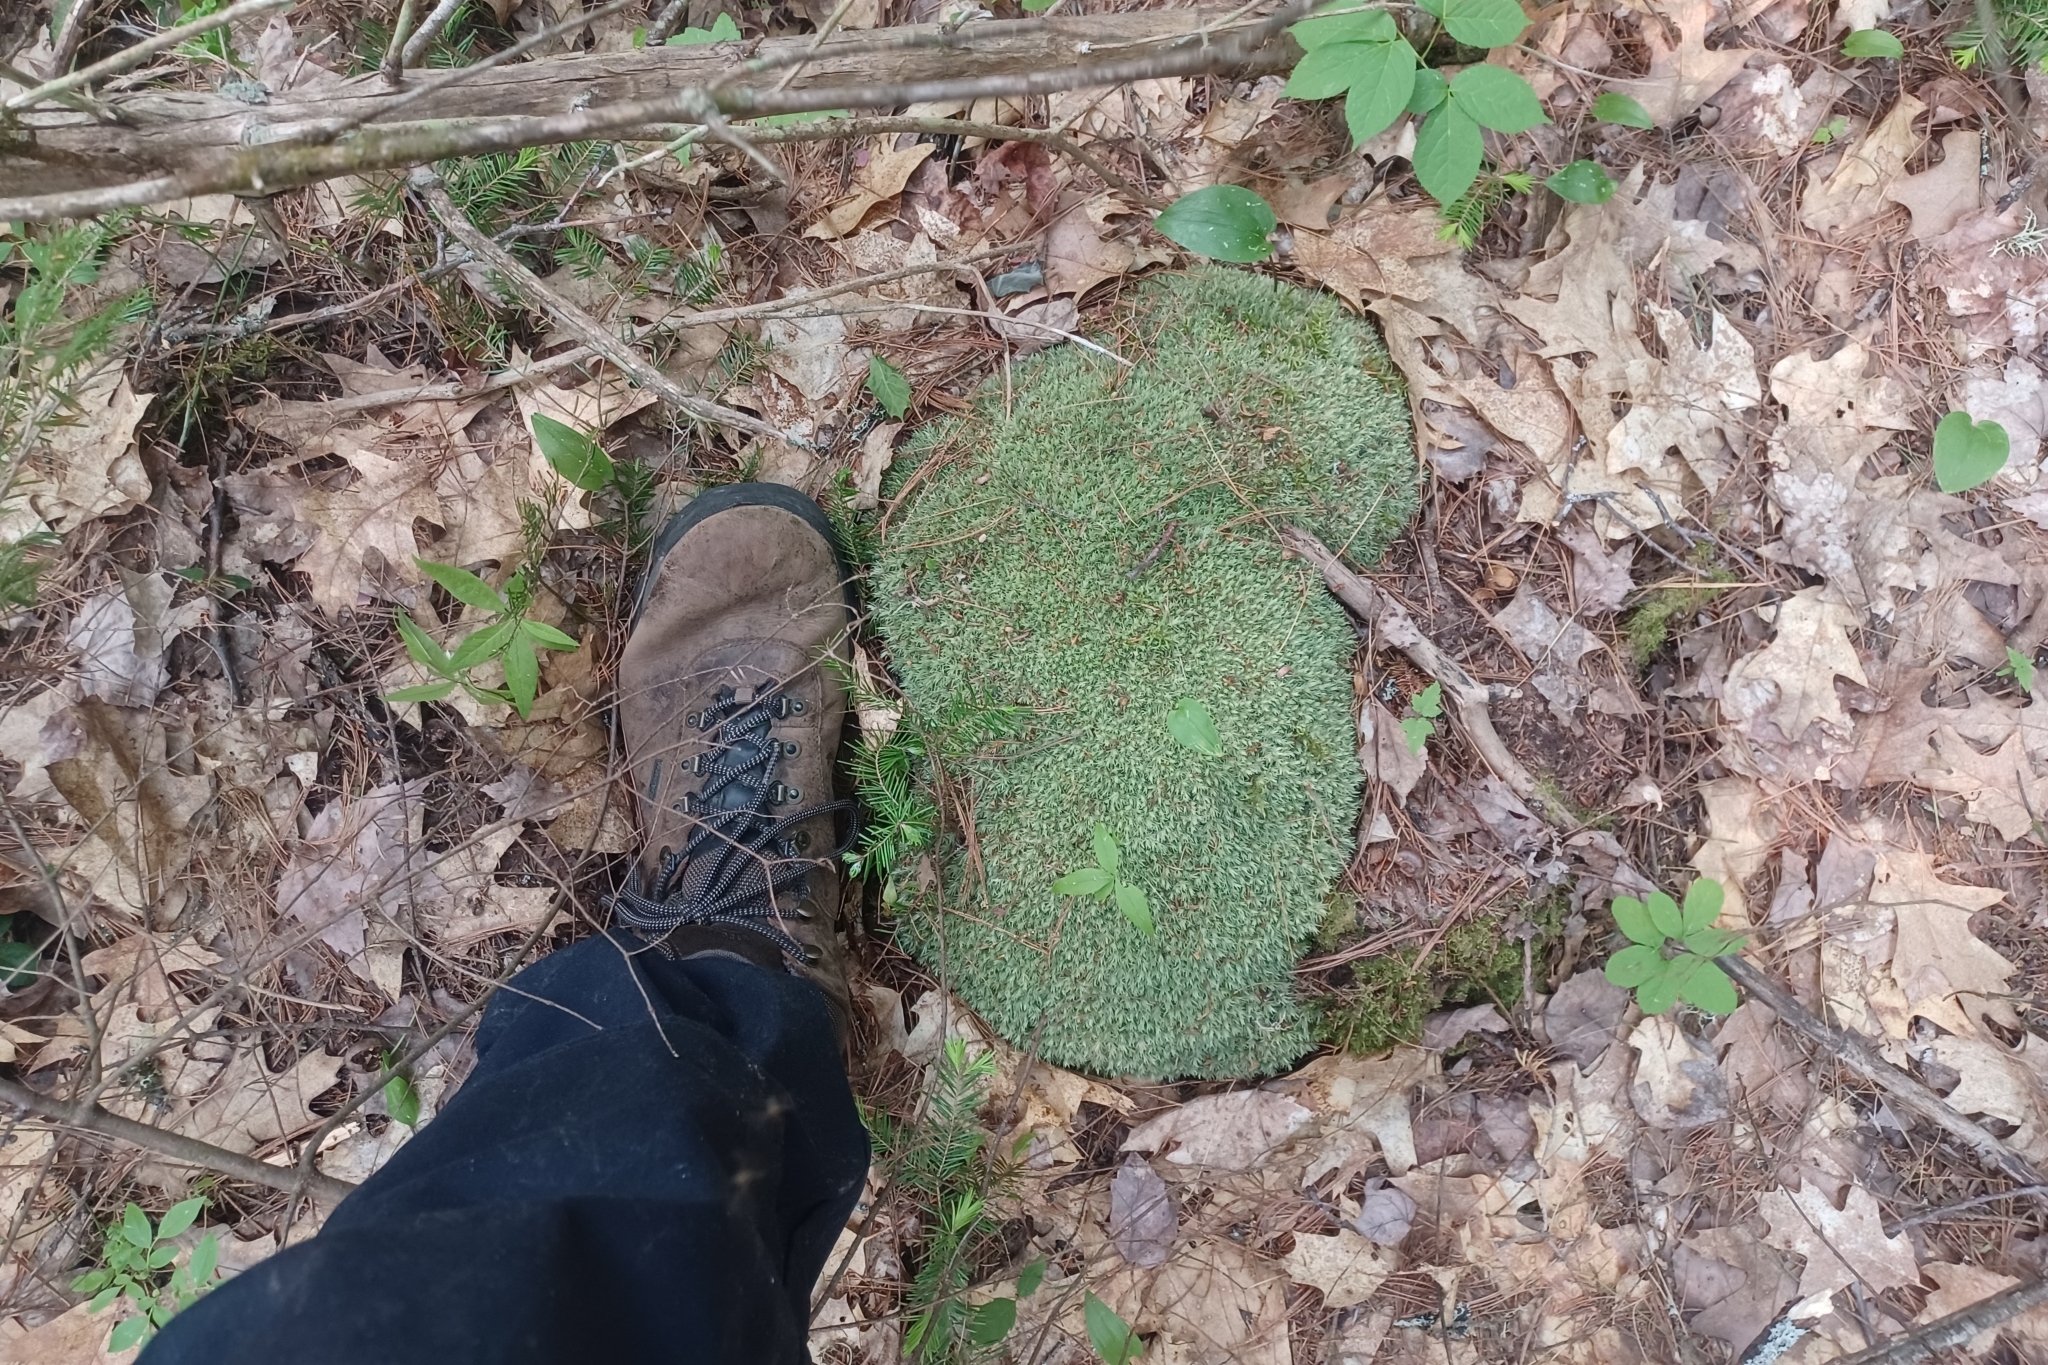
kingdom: Plantae
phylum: Bryophyta
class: Bryopsida
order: Dicranales
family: Leucobryaceae
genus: Leucobryum
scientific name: Leucobryum glaucum
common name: Large white-moss
